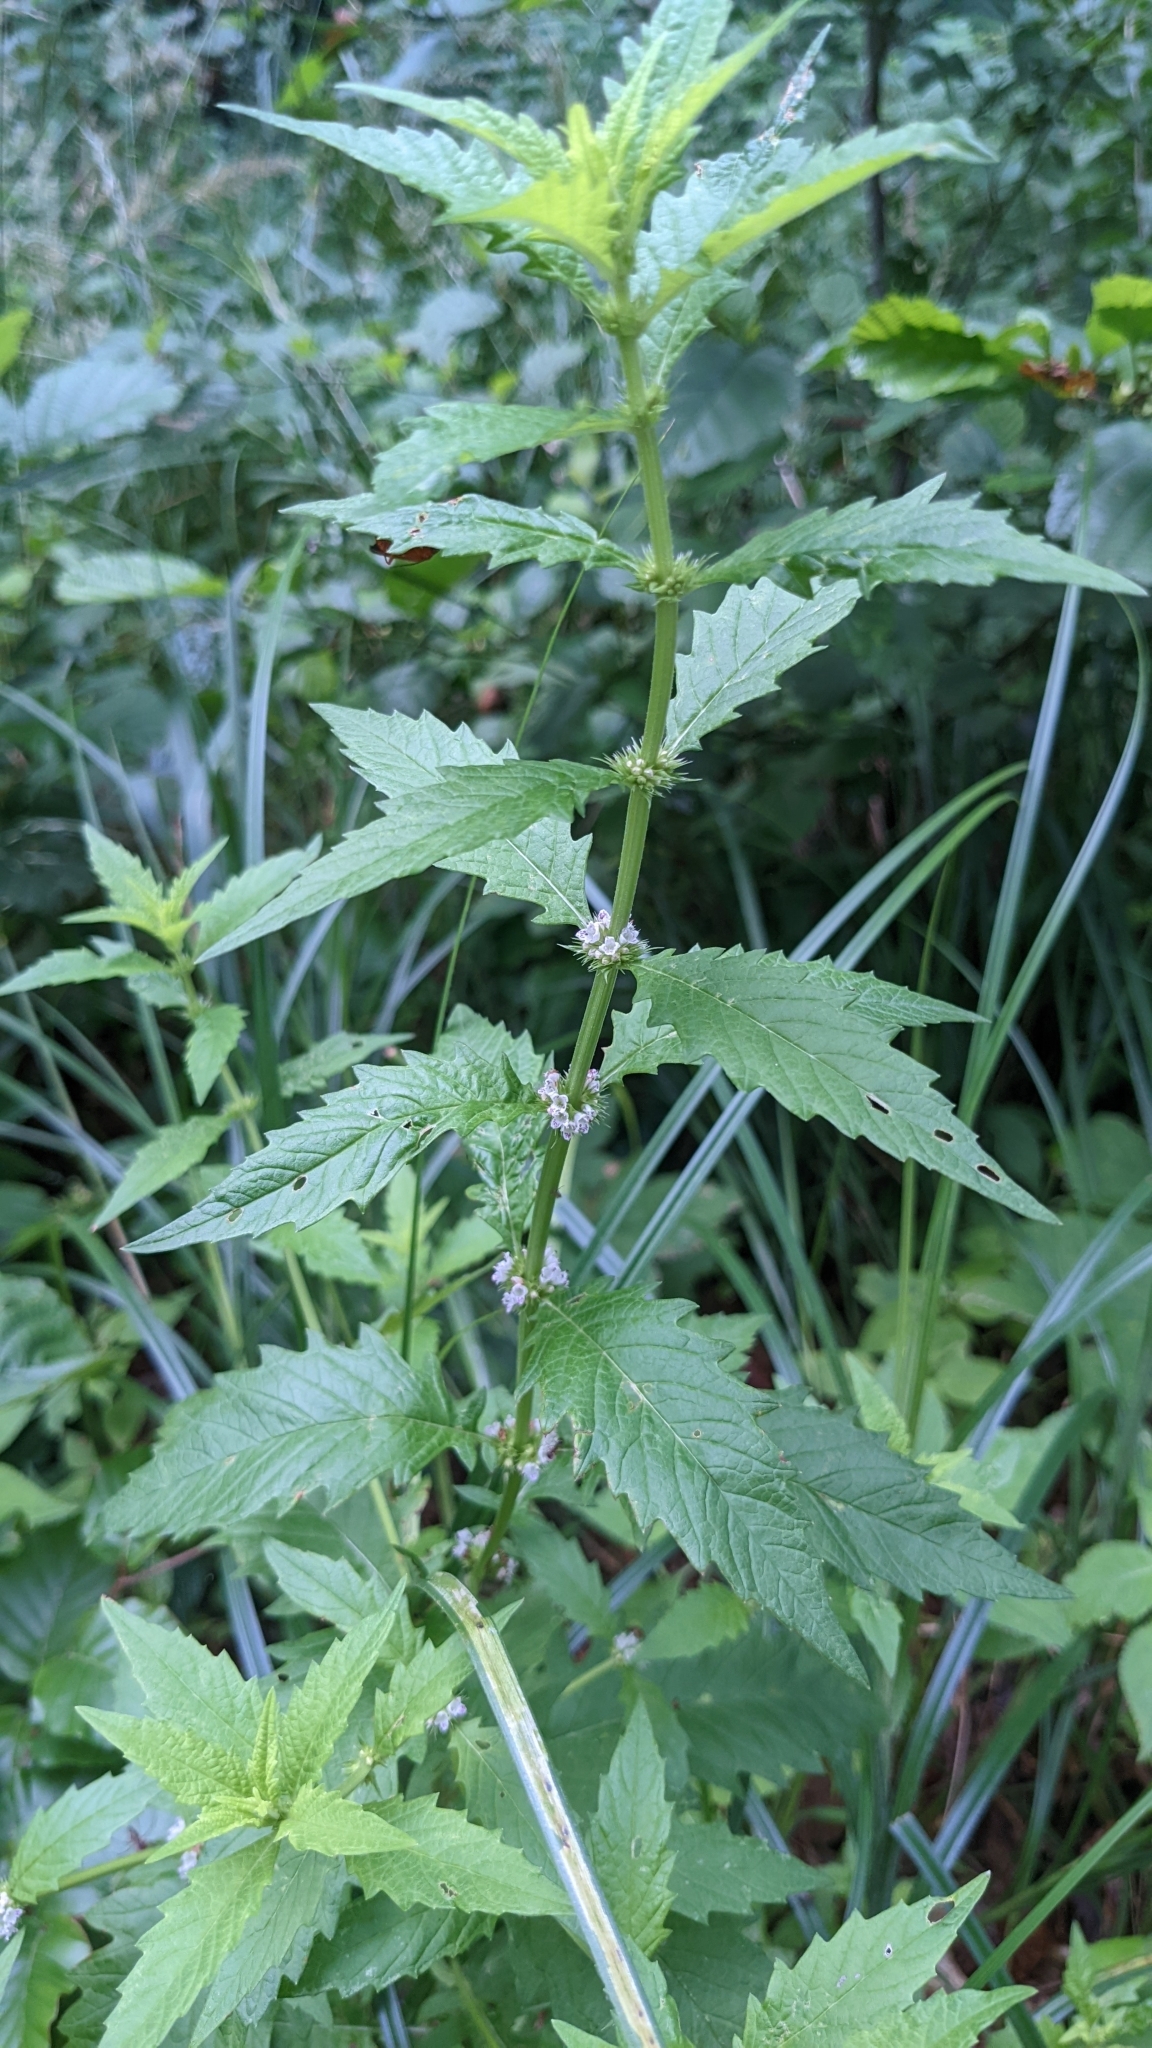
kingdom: Plantae
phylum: Tracheophyta
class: Magnoliopsida
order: Lamiales
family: Lamiaceae
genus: Lycopus
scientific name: Lycopus europaeus
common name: European bugleweed
